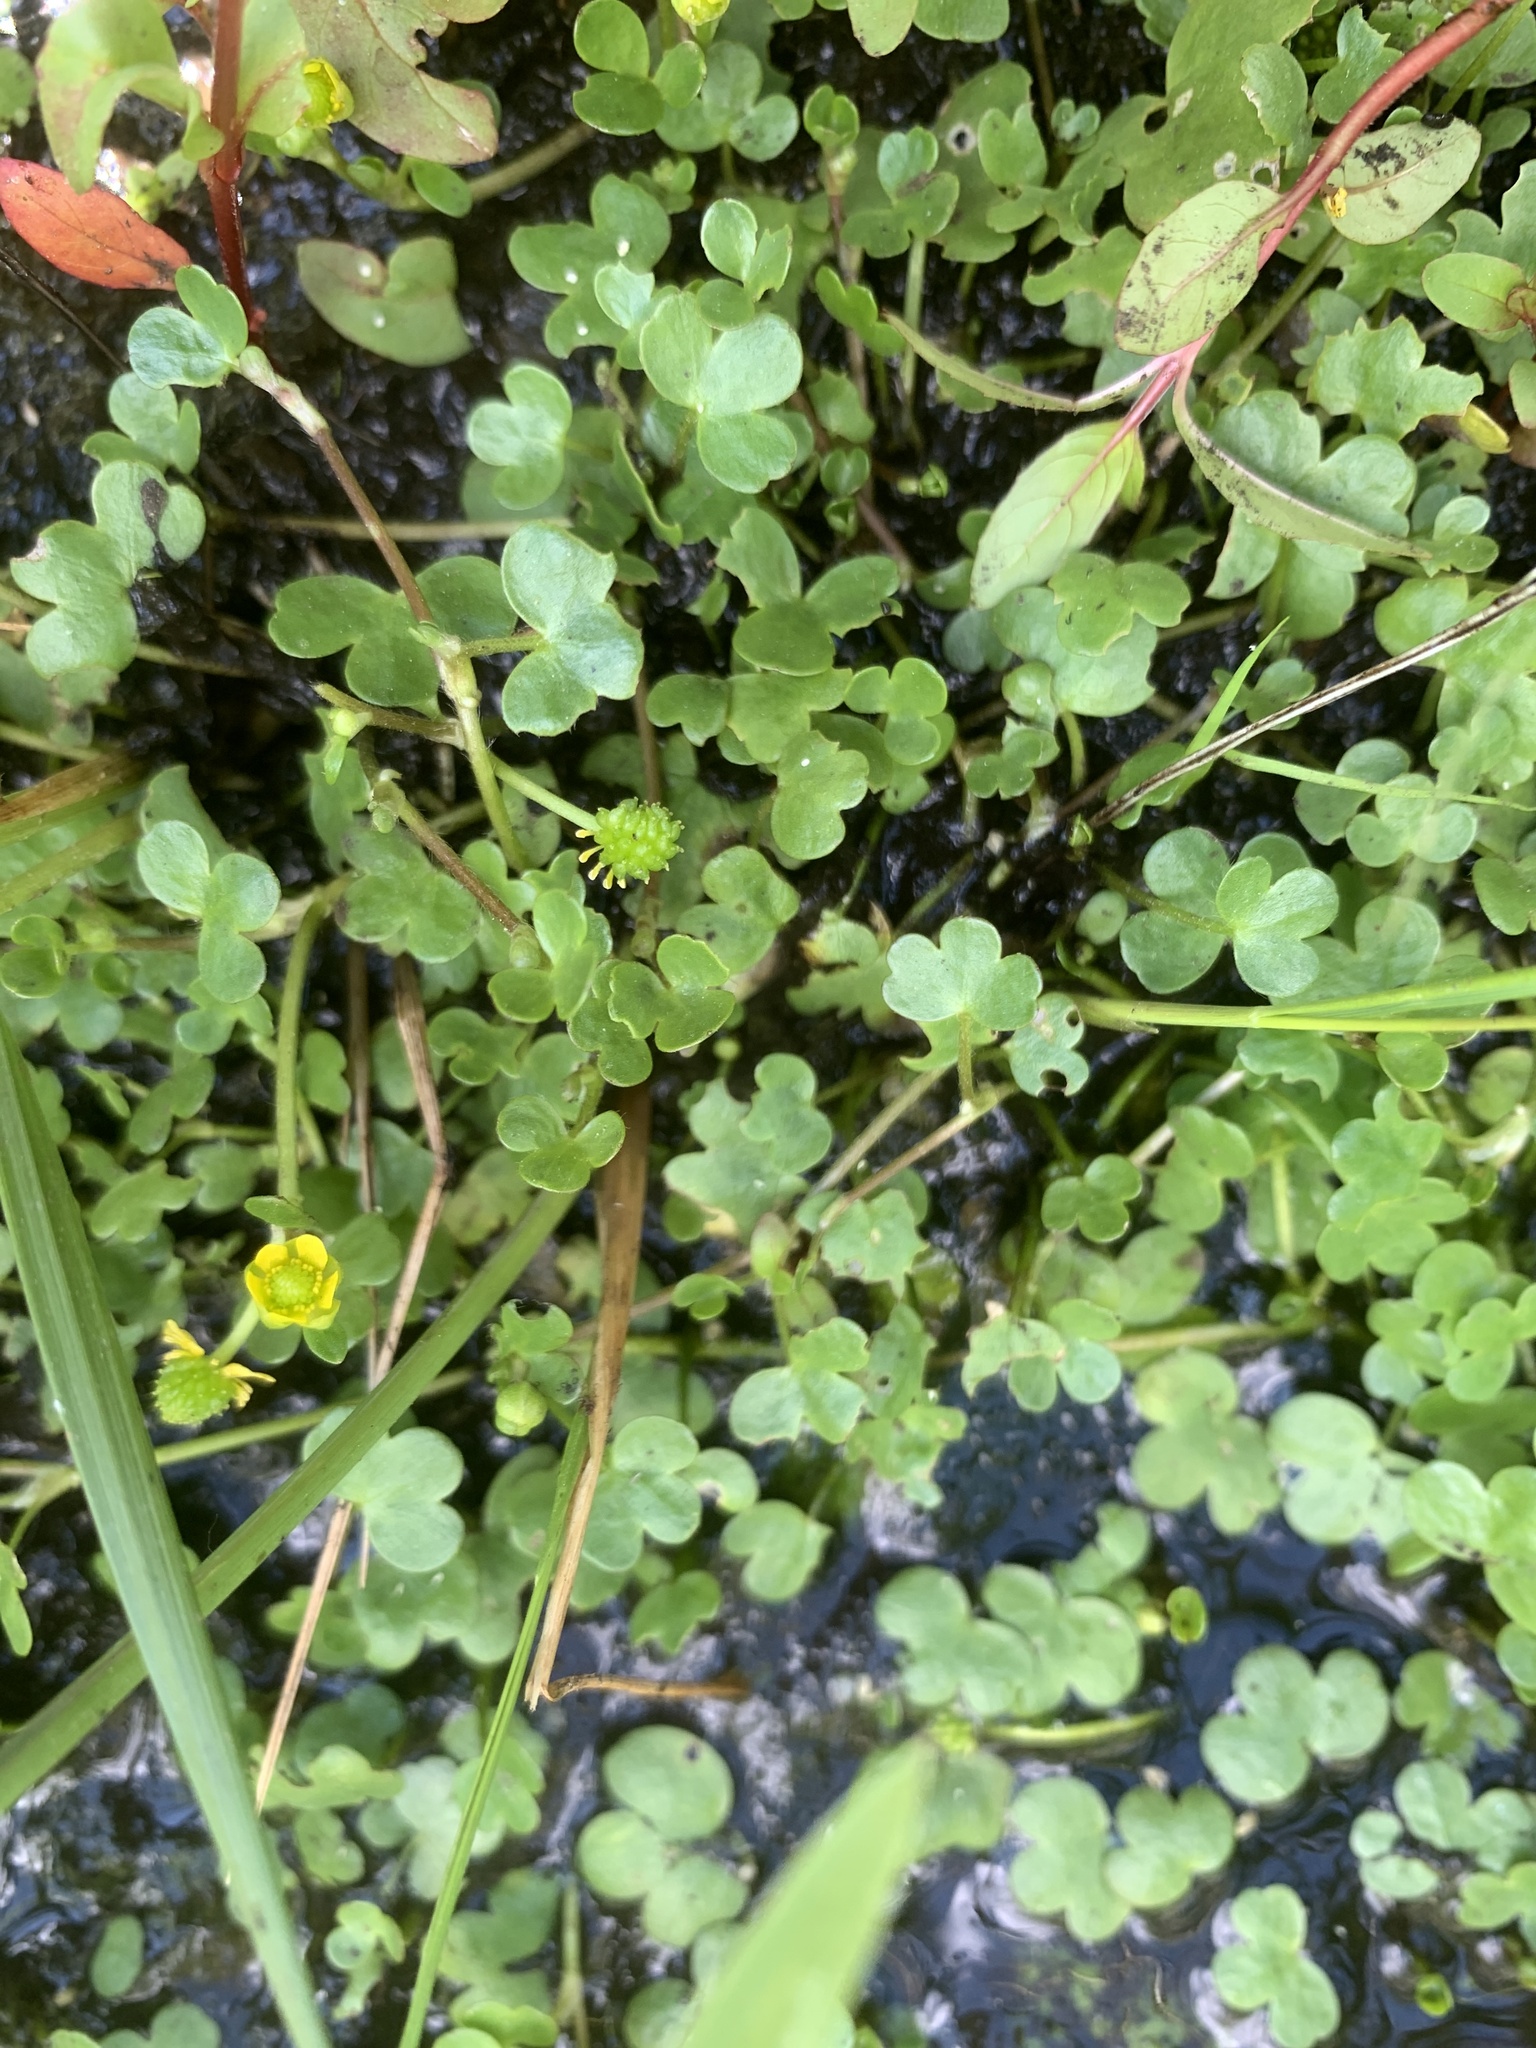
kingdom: Plantae
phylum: Tracheophyta
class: Magnoliopsida
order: Ranunculales
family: Ranunculaceae
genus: Ranunculus
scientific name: Ranunculus hyperboreus
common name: Arctic buttercup
